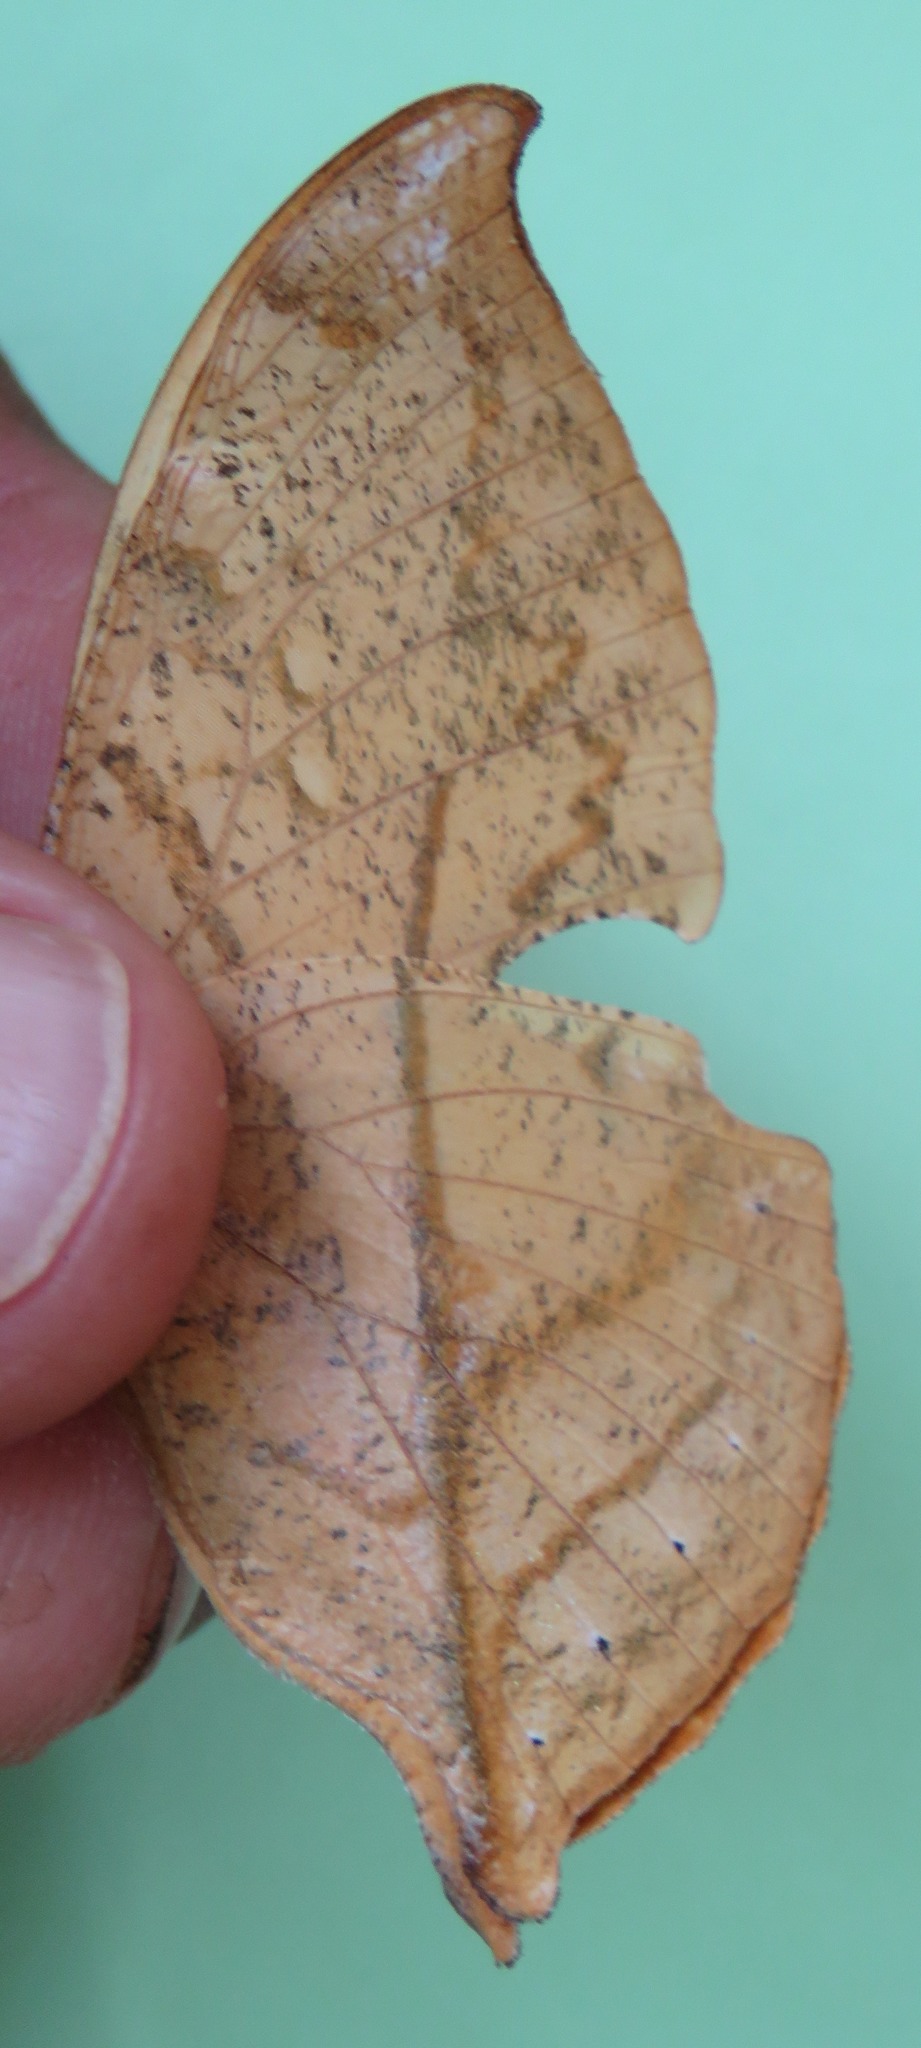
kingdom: Animalia
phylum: Arthropoda
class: Insecta
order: Lepidoptera
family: Nymphalidae
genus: Zaretis
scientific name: Zaretis itys
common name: Skeletonized leafwing
